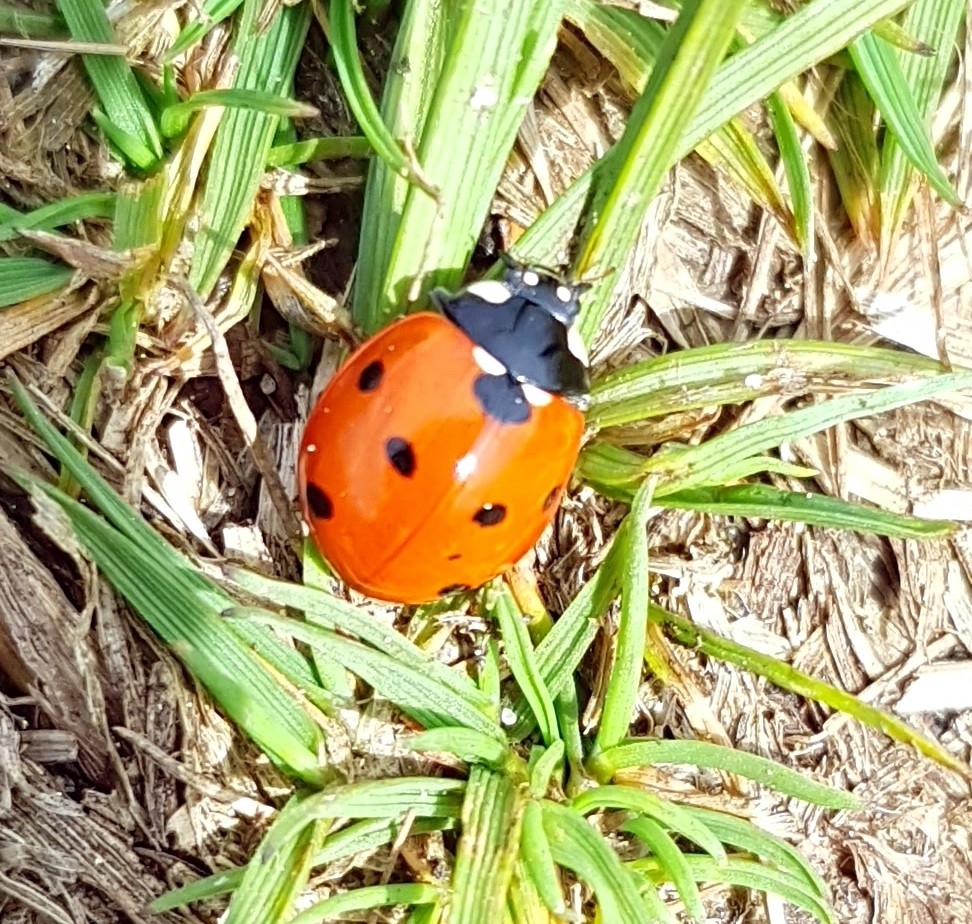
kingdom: Animalia
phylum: Arthropoda
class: Insecta
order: Coleoptera
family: Coccinellidae
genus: Coccinella
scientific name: Coccinella septempunctata
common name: Sevenspotted lady beetle
